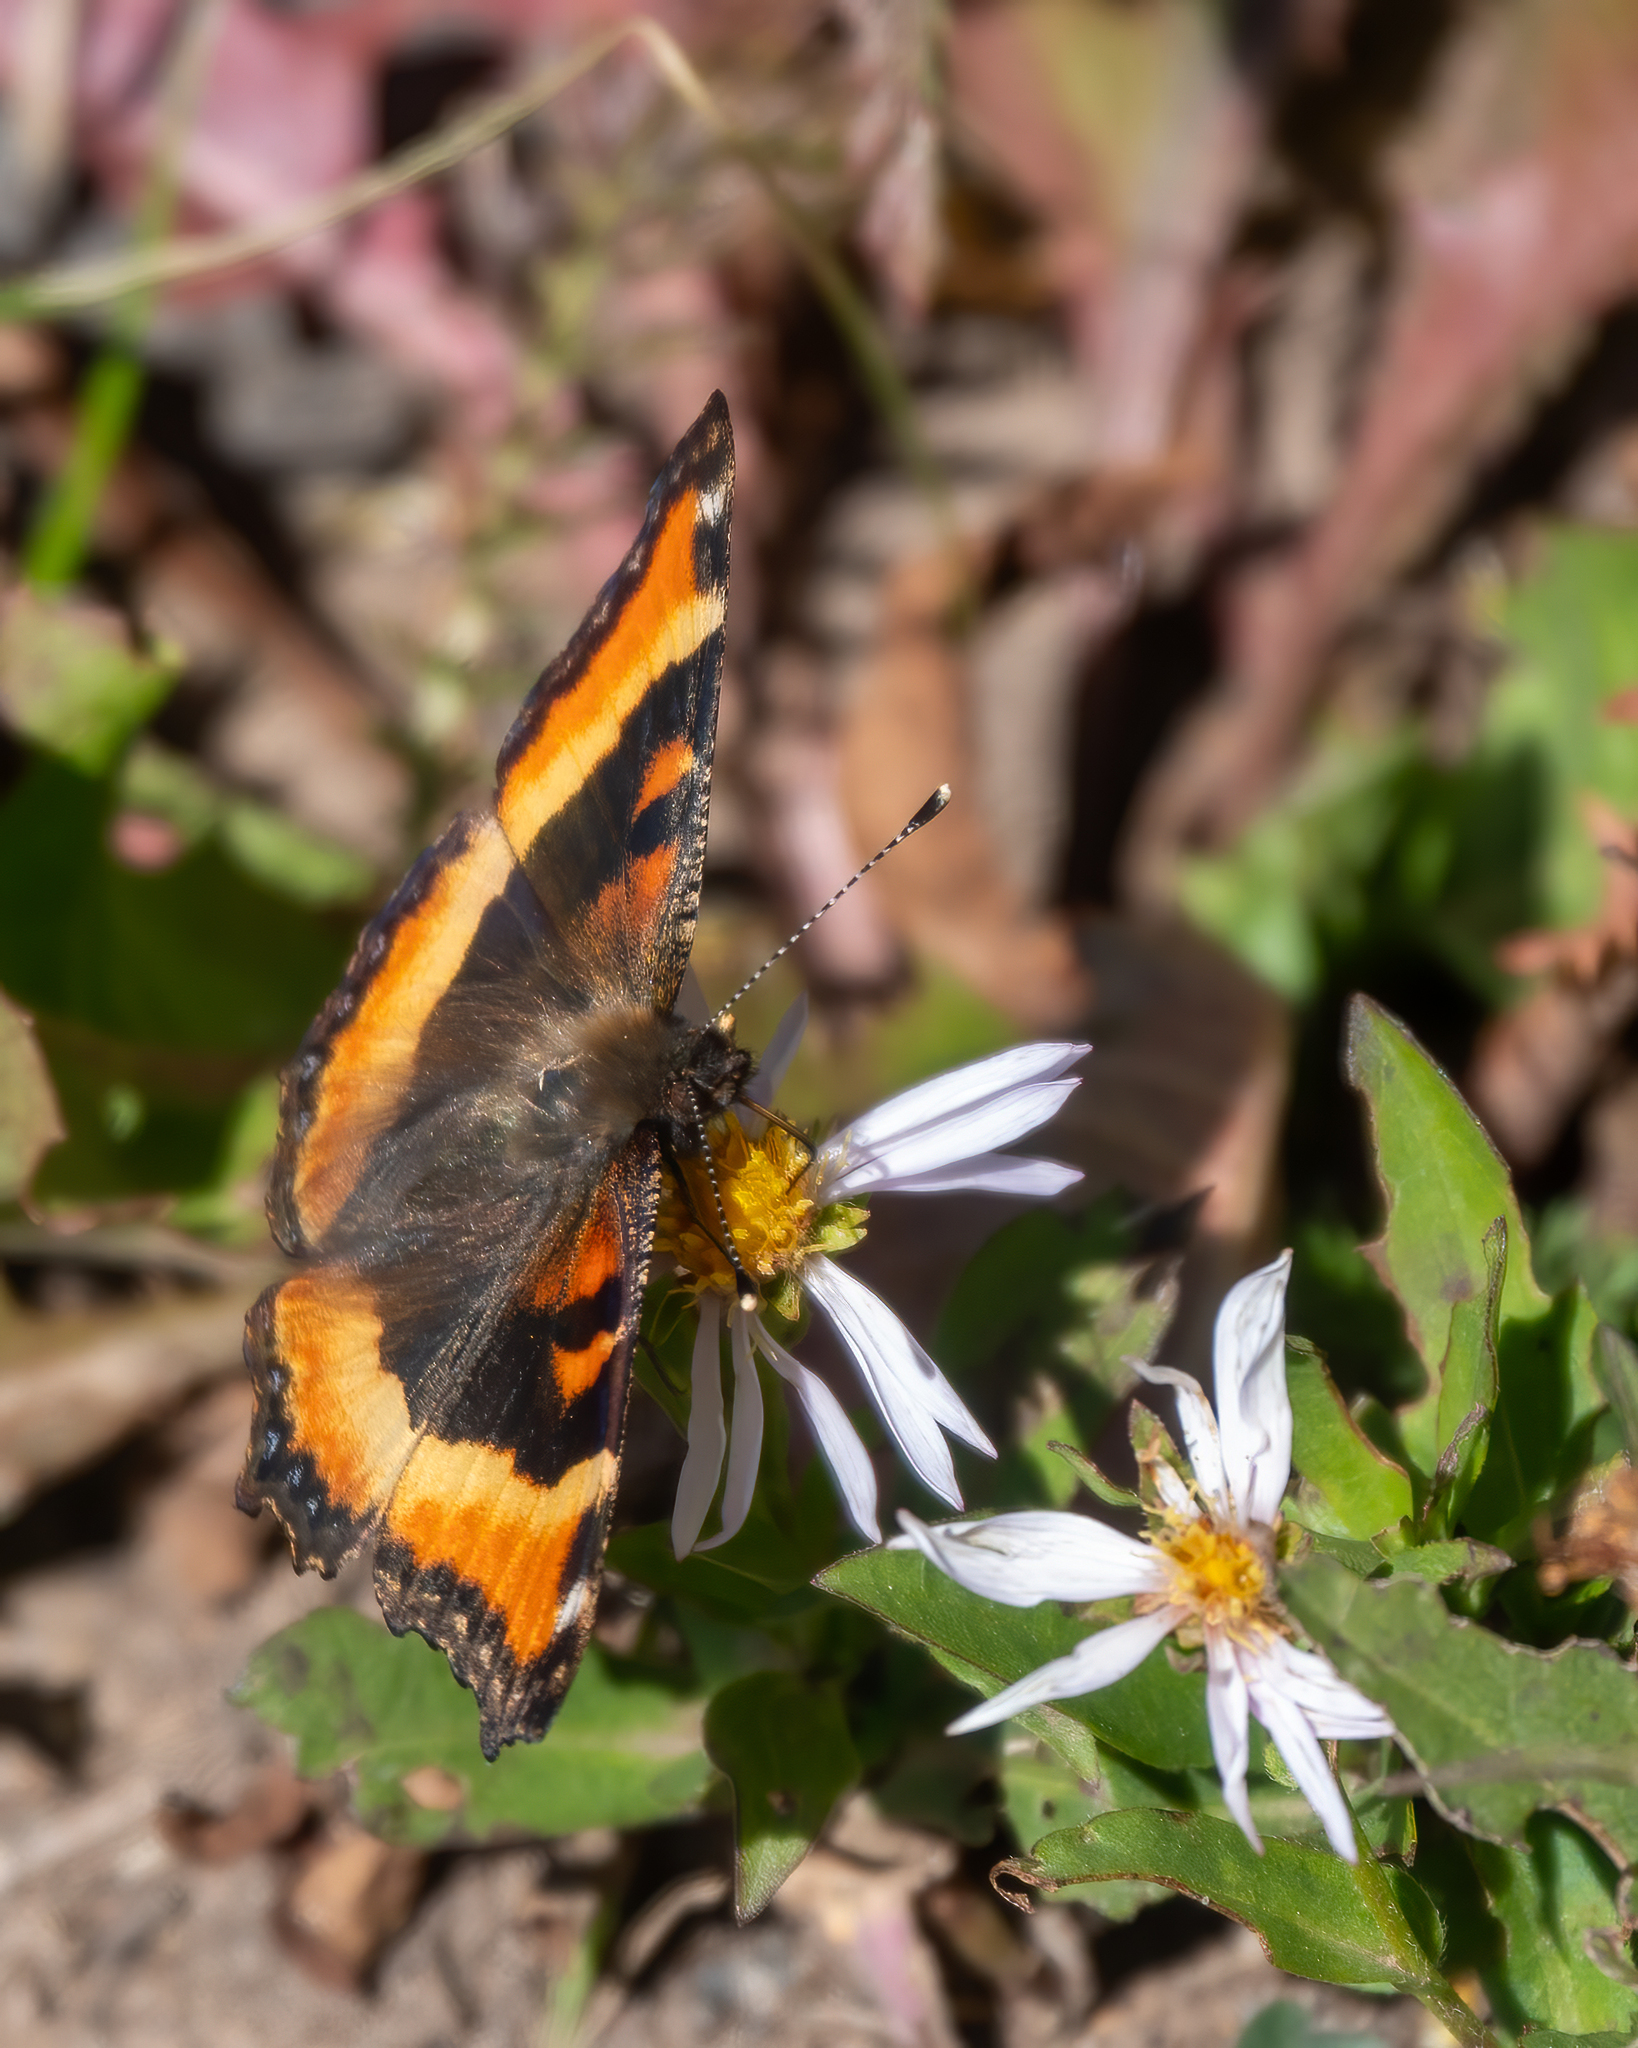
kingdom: Animalia
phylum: Arthropoda
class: Insecta
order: Lepidoptera
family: Nymphalidae
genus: Aglais
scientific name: Aglais milberti
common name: Milbert's tortoiseshell
